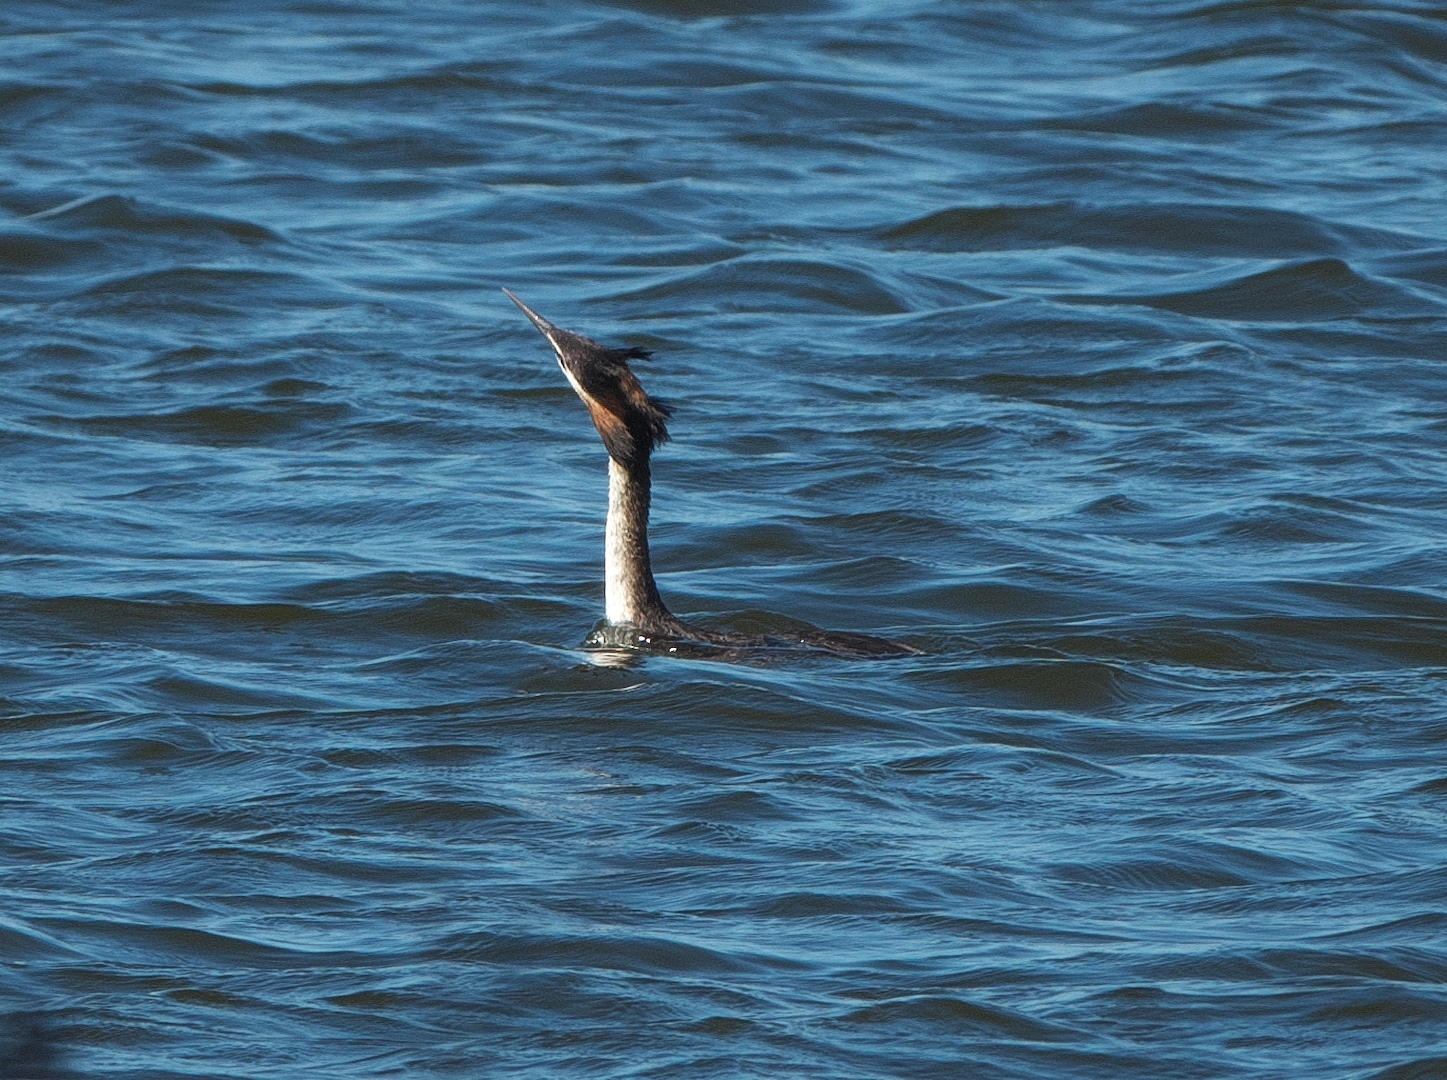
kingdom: Animalia
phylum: Chordata
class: Aves
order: Podicipediformes
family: Podicipedidae
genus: Podiceps
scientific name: Podiceps cristatus
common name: Great crested grebe
